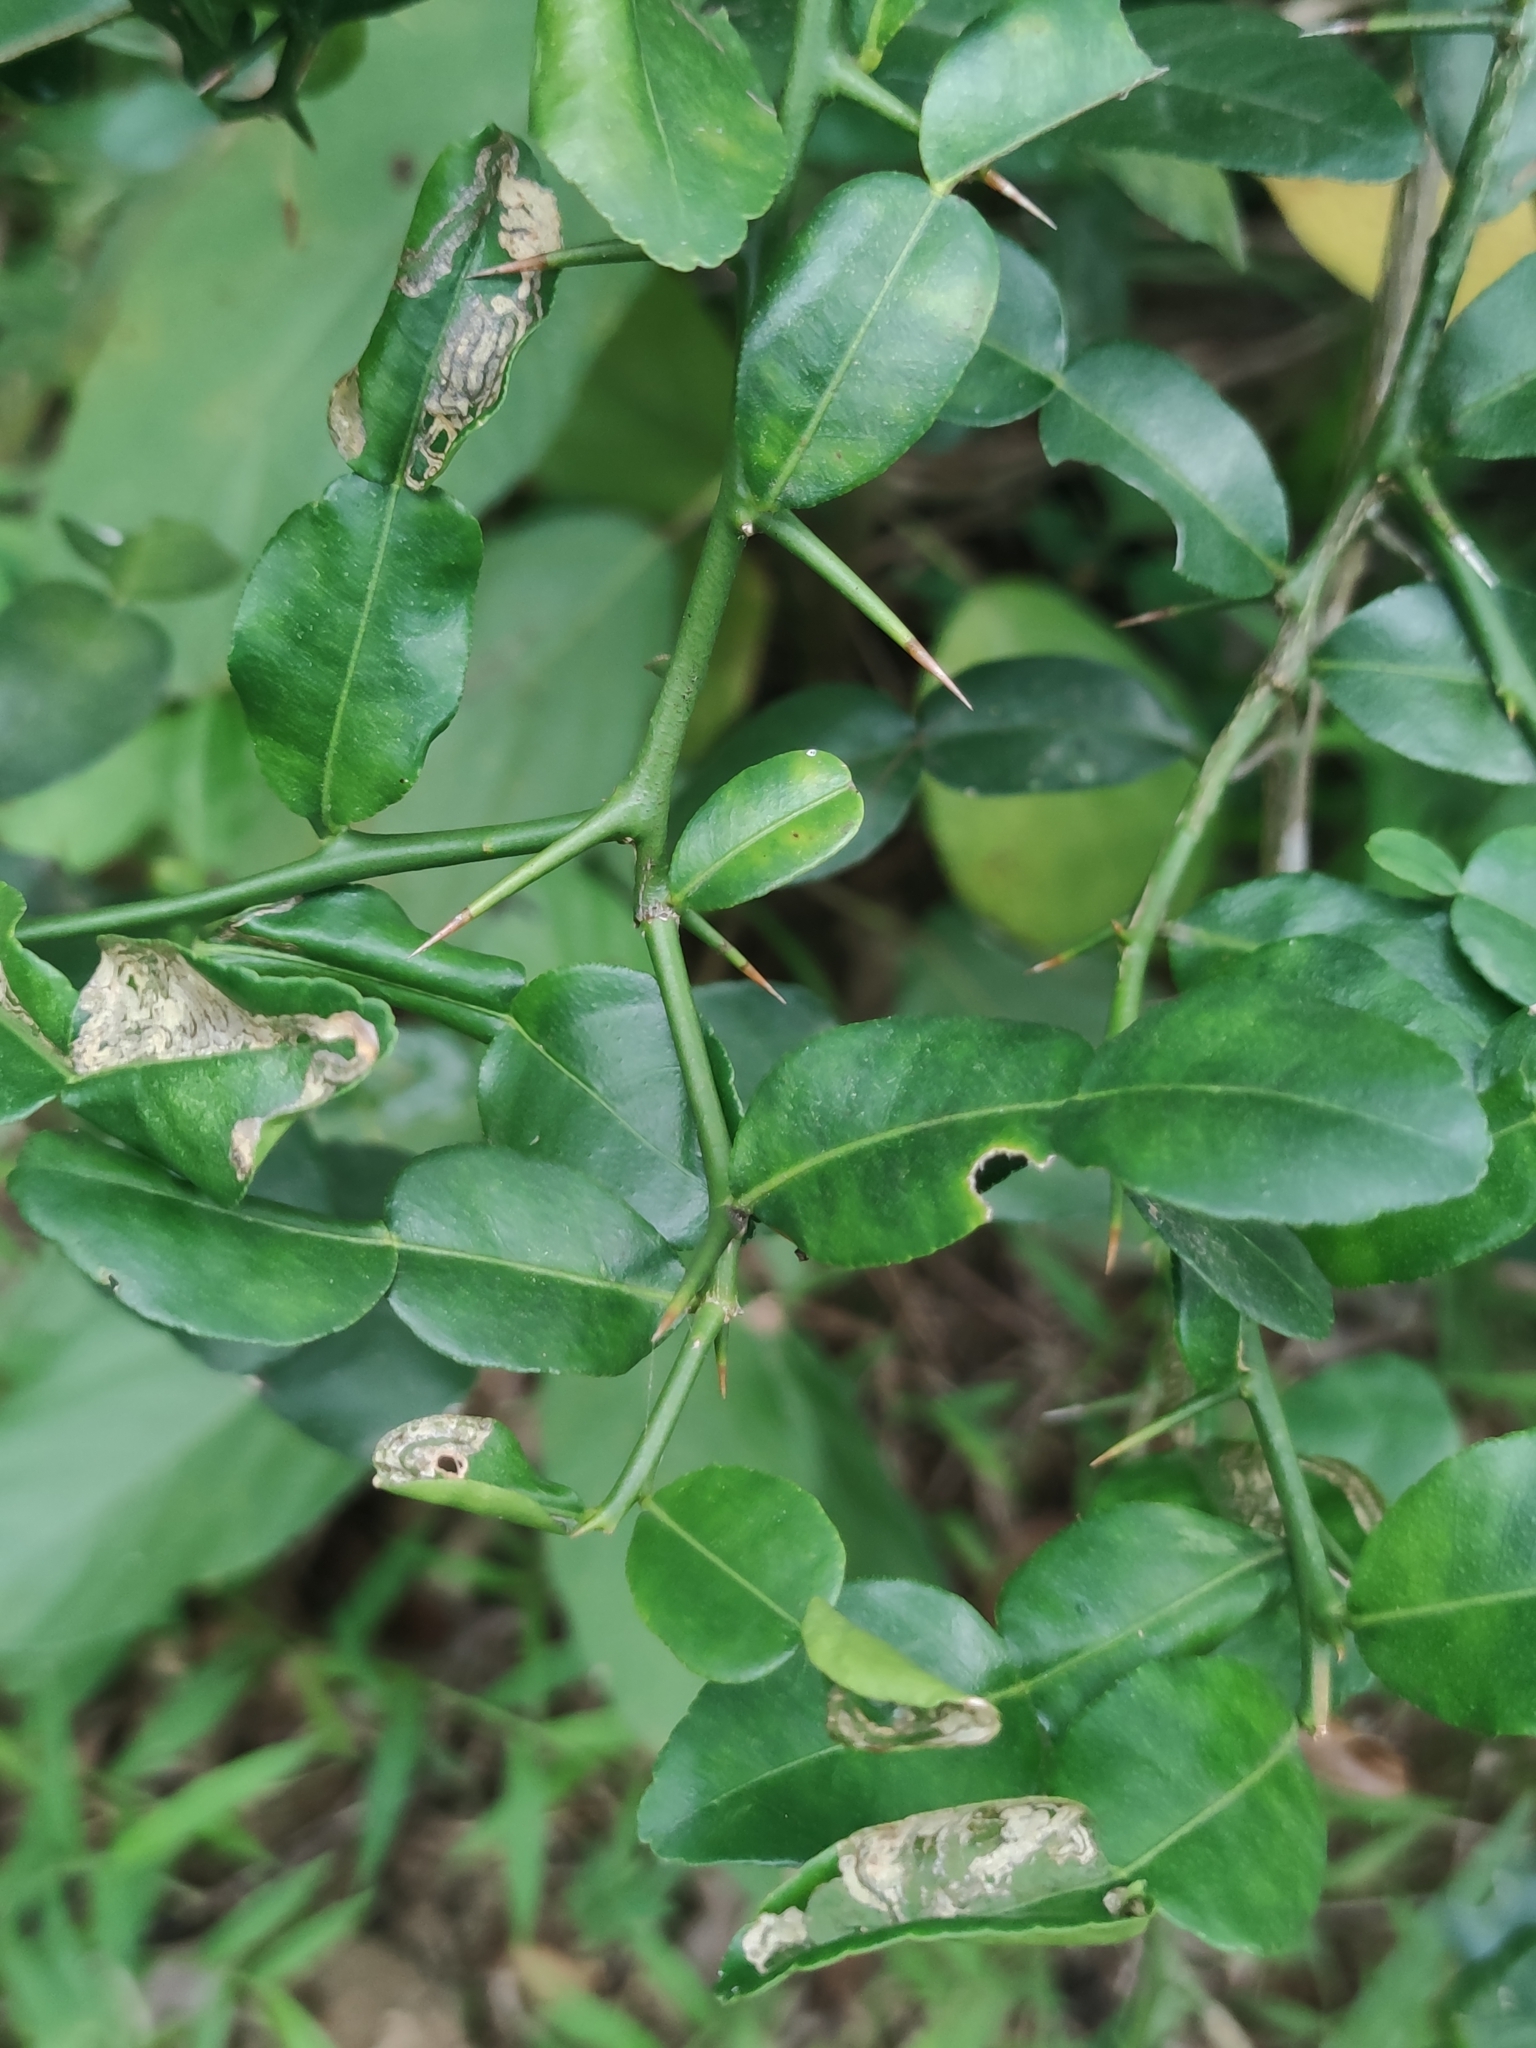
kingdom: Plantae
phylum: Tracheophyta
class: Magnoliopsida
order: Sapindales
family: Rutaceae
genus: Citrus
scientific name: Citrus hystrix
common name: Kaffir-lime
